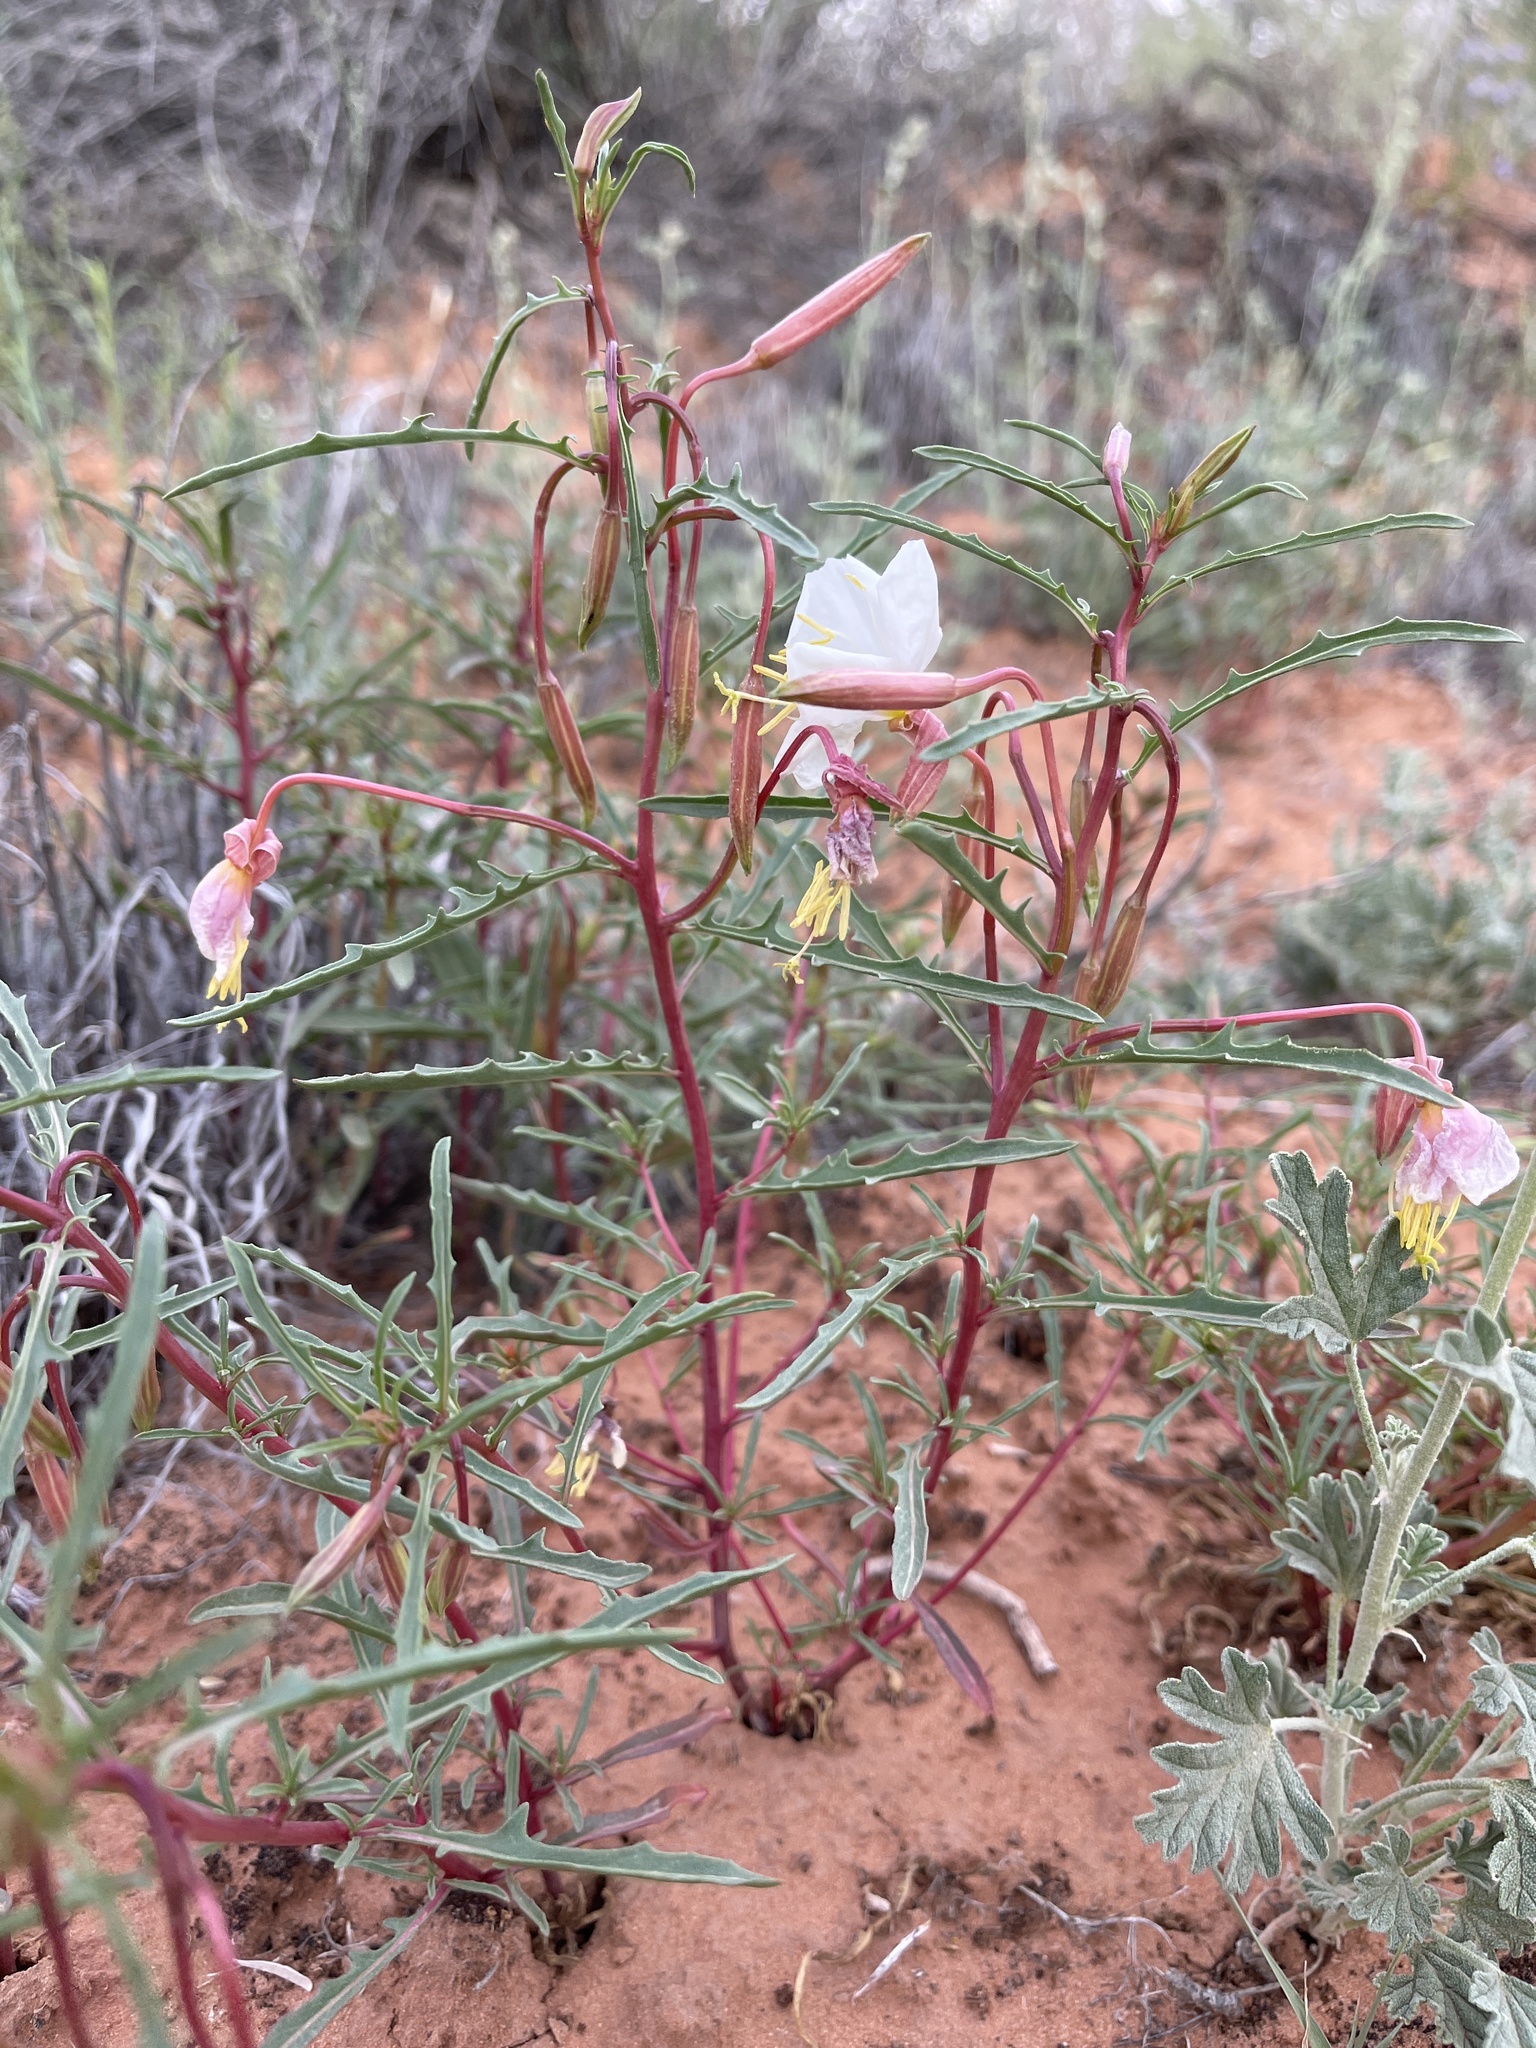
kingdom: Plantae
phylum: Tracheophyta
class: Magnoliopsida
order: Myrtales
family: Onagraceae
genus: Oenothera
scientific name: Oenothera pallida
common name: Pale evening-primrose
